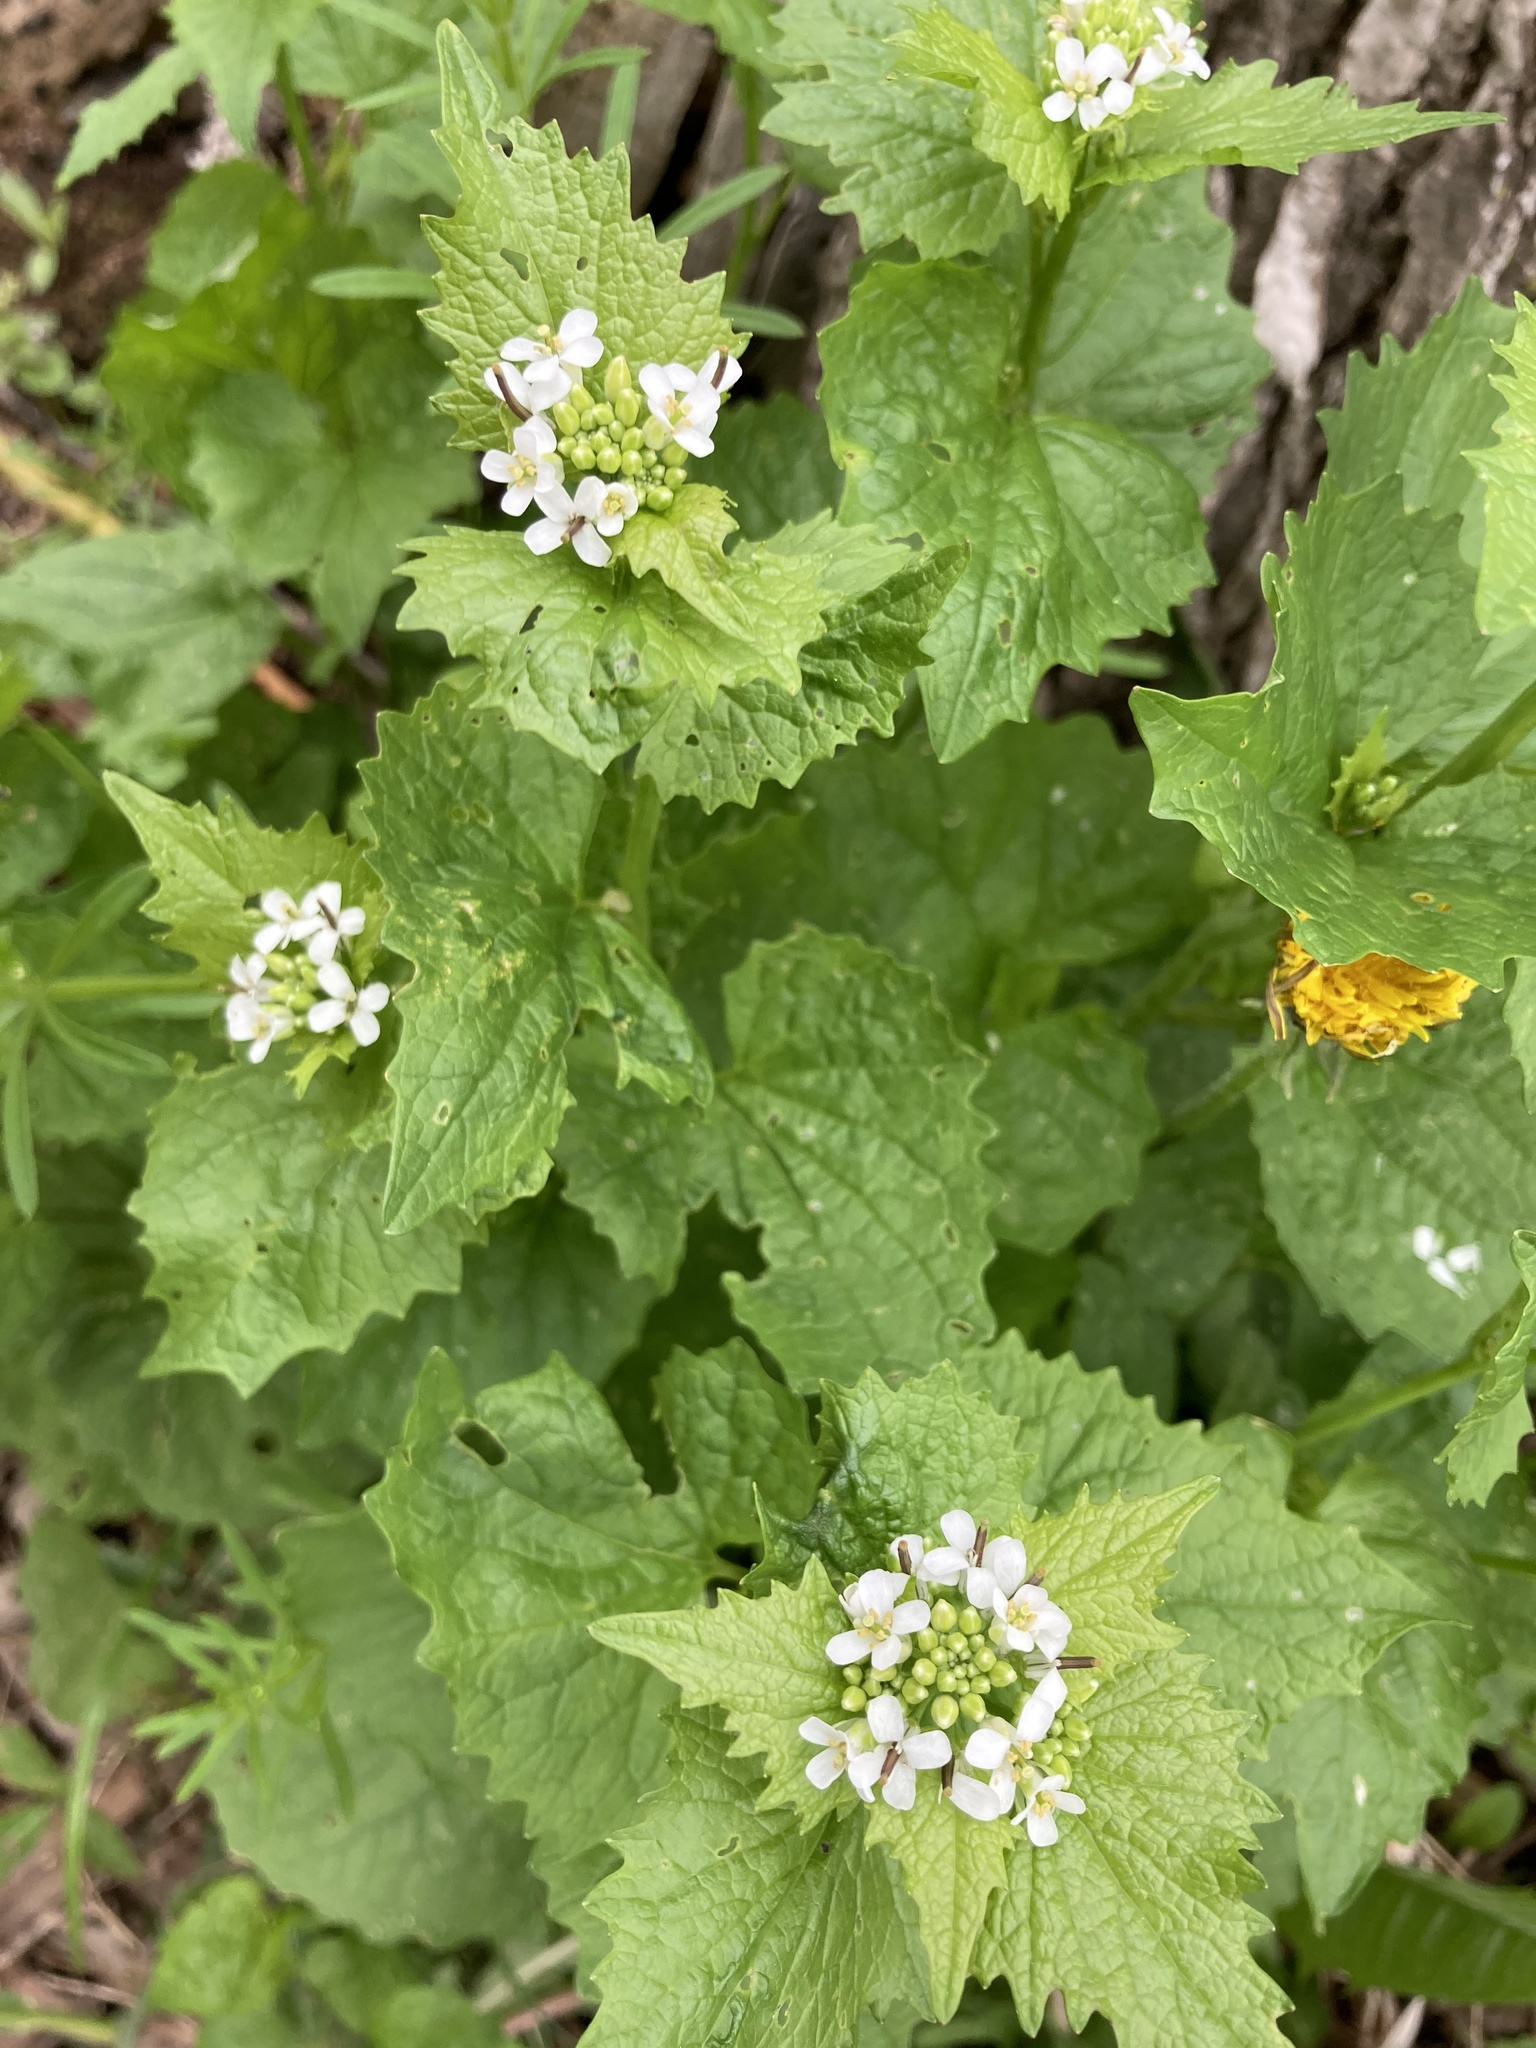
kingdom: Plantae
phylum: Tracheophyta
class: Magnoliopsida
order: Brassicales
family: Brassicaceae
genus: Alliaria
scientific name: Alliaria petiolata
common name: Garlic mustard
